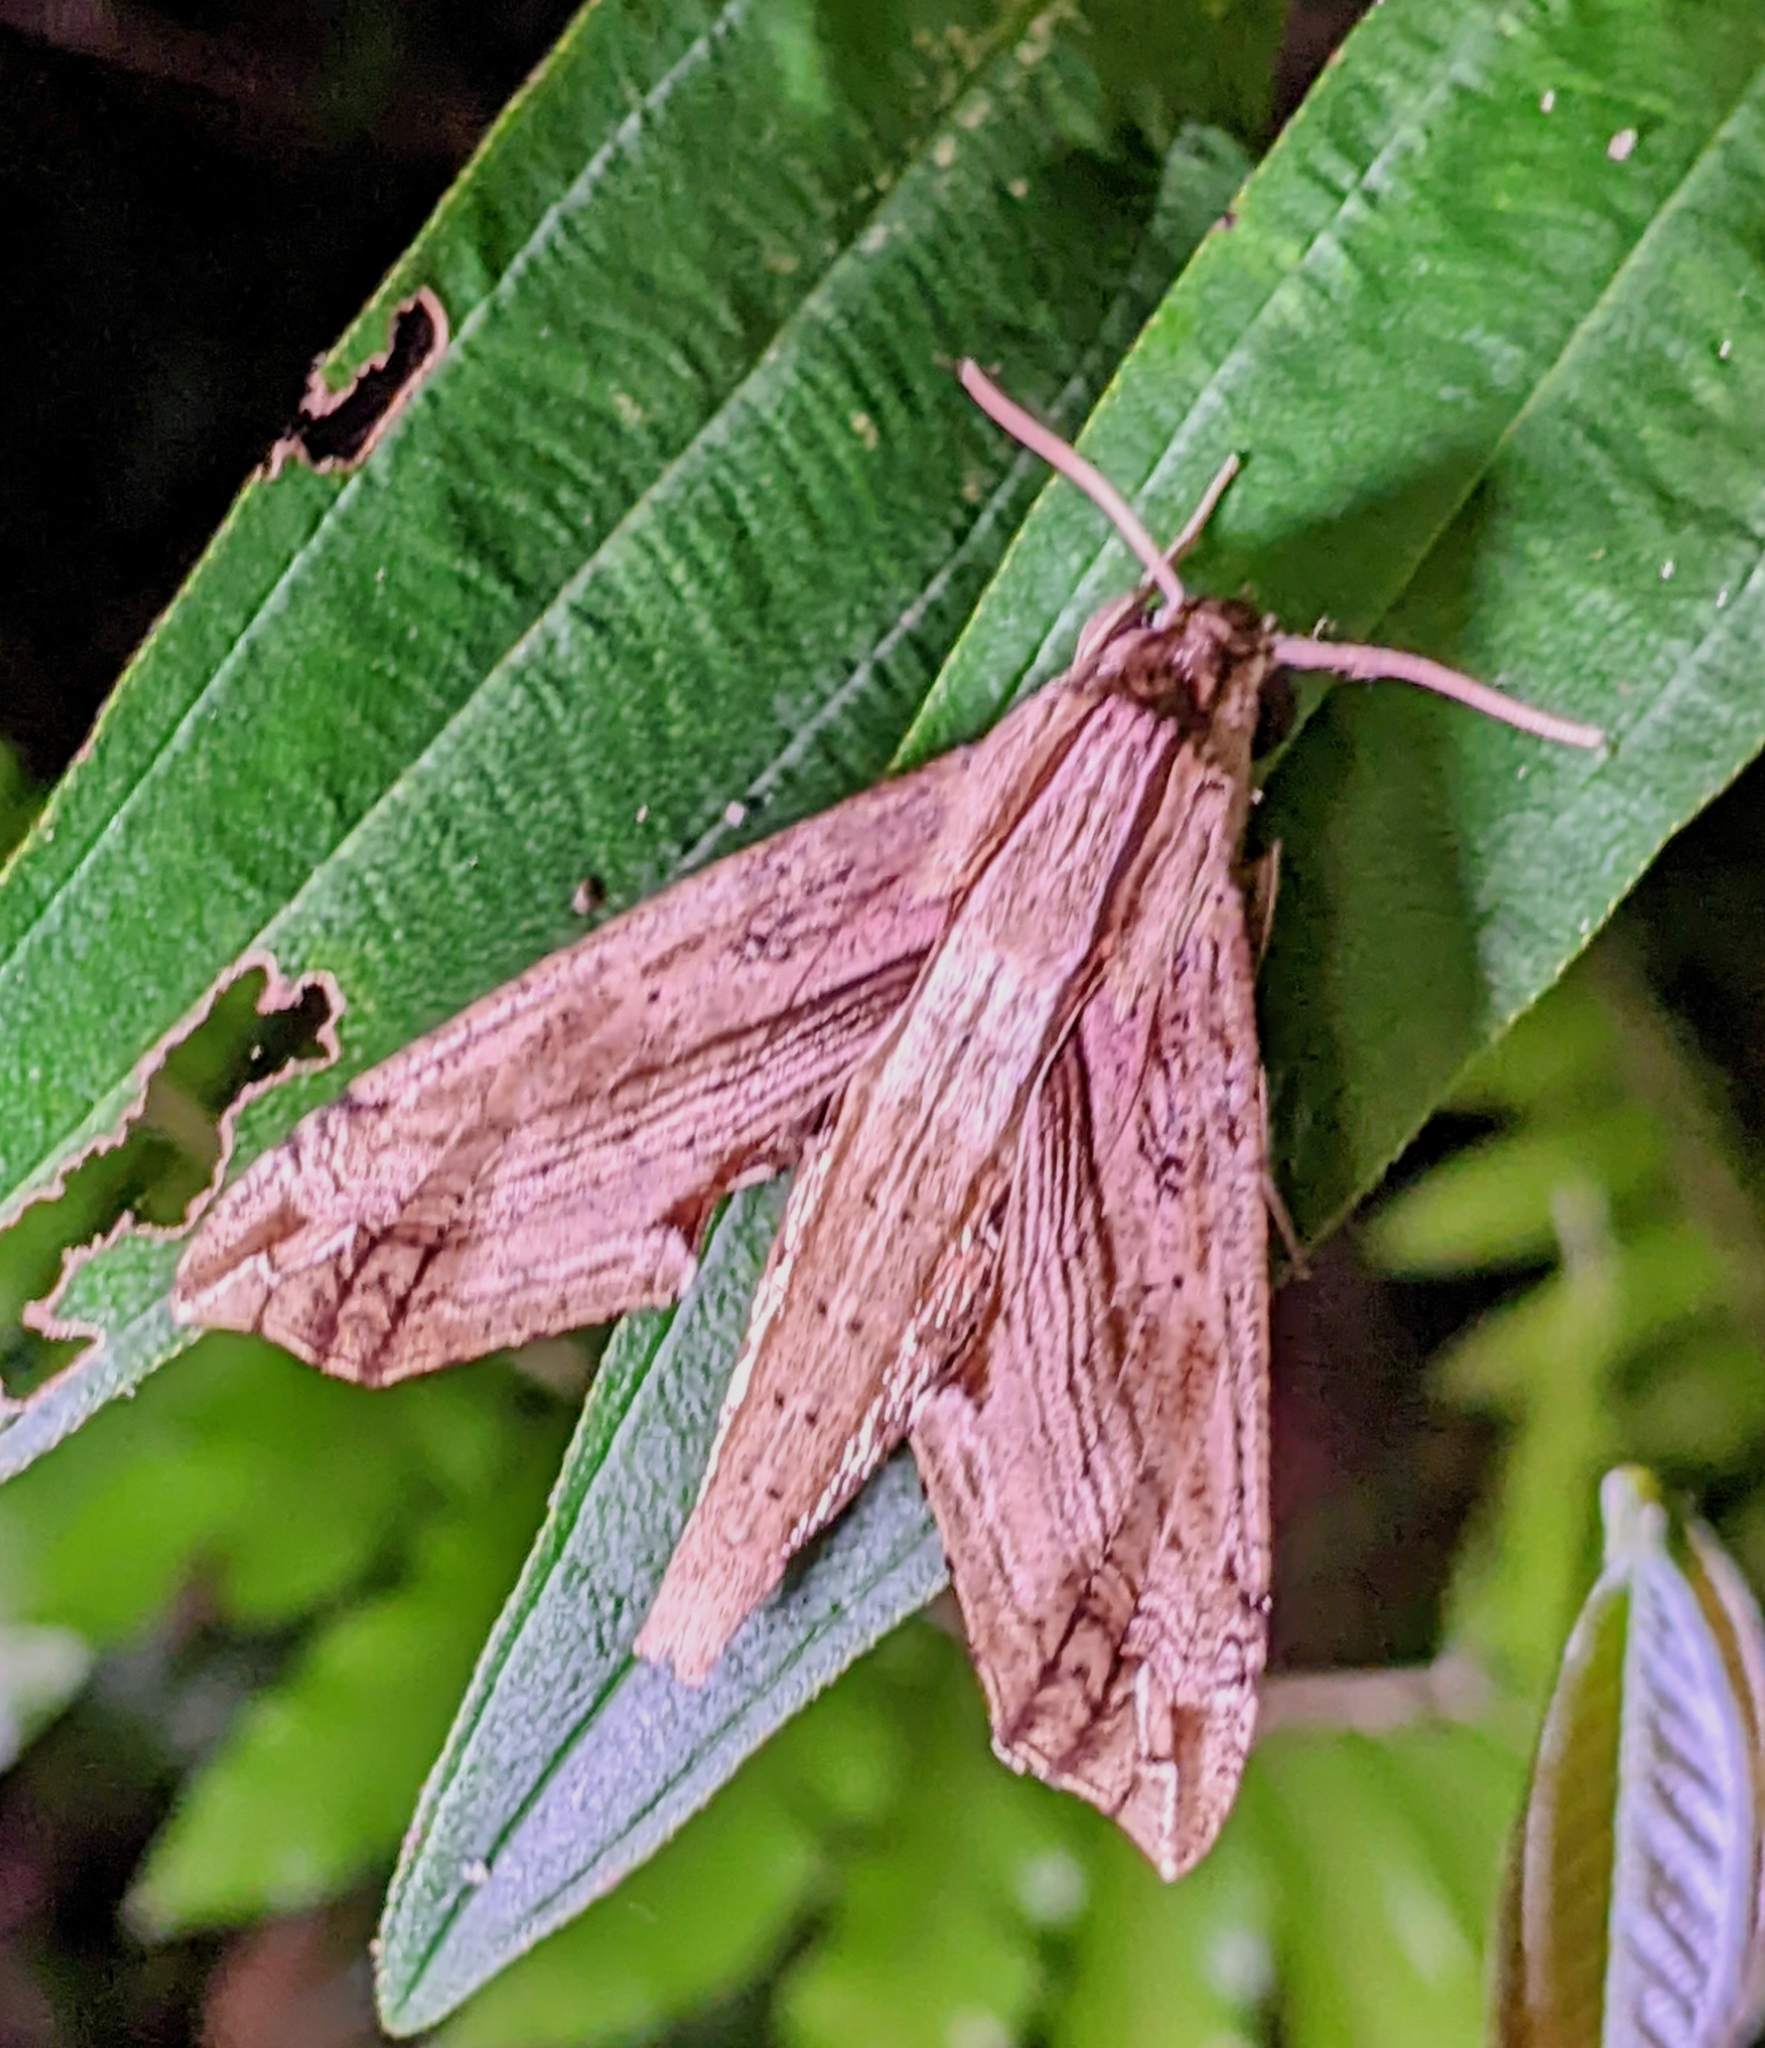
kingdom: Animalia
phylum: Arthropoda
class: Insecta
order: Lepidoptera
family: Sphingidae
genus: Eupanacra
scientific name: Eupanacra regularis
